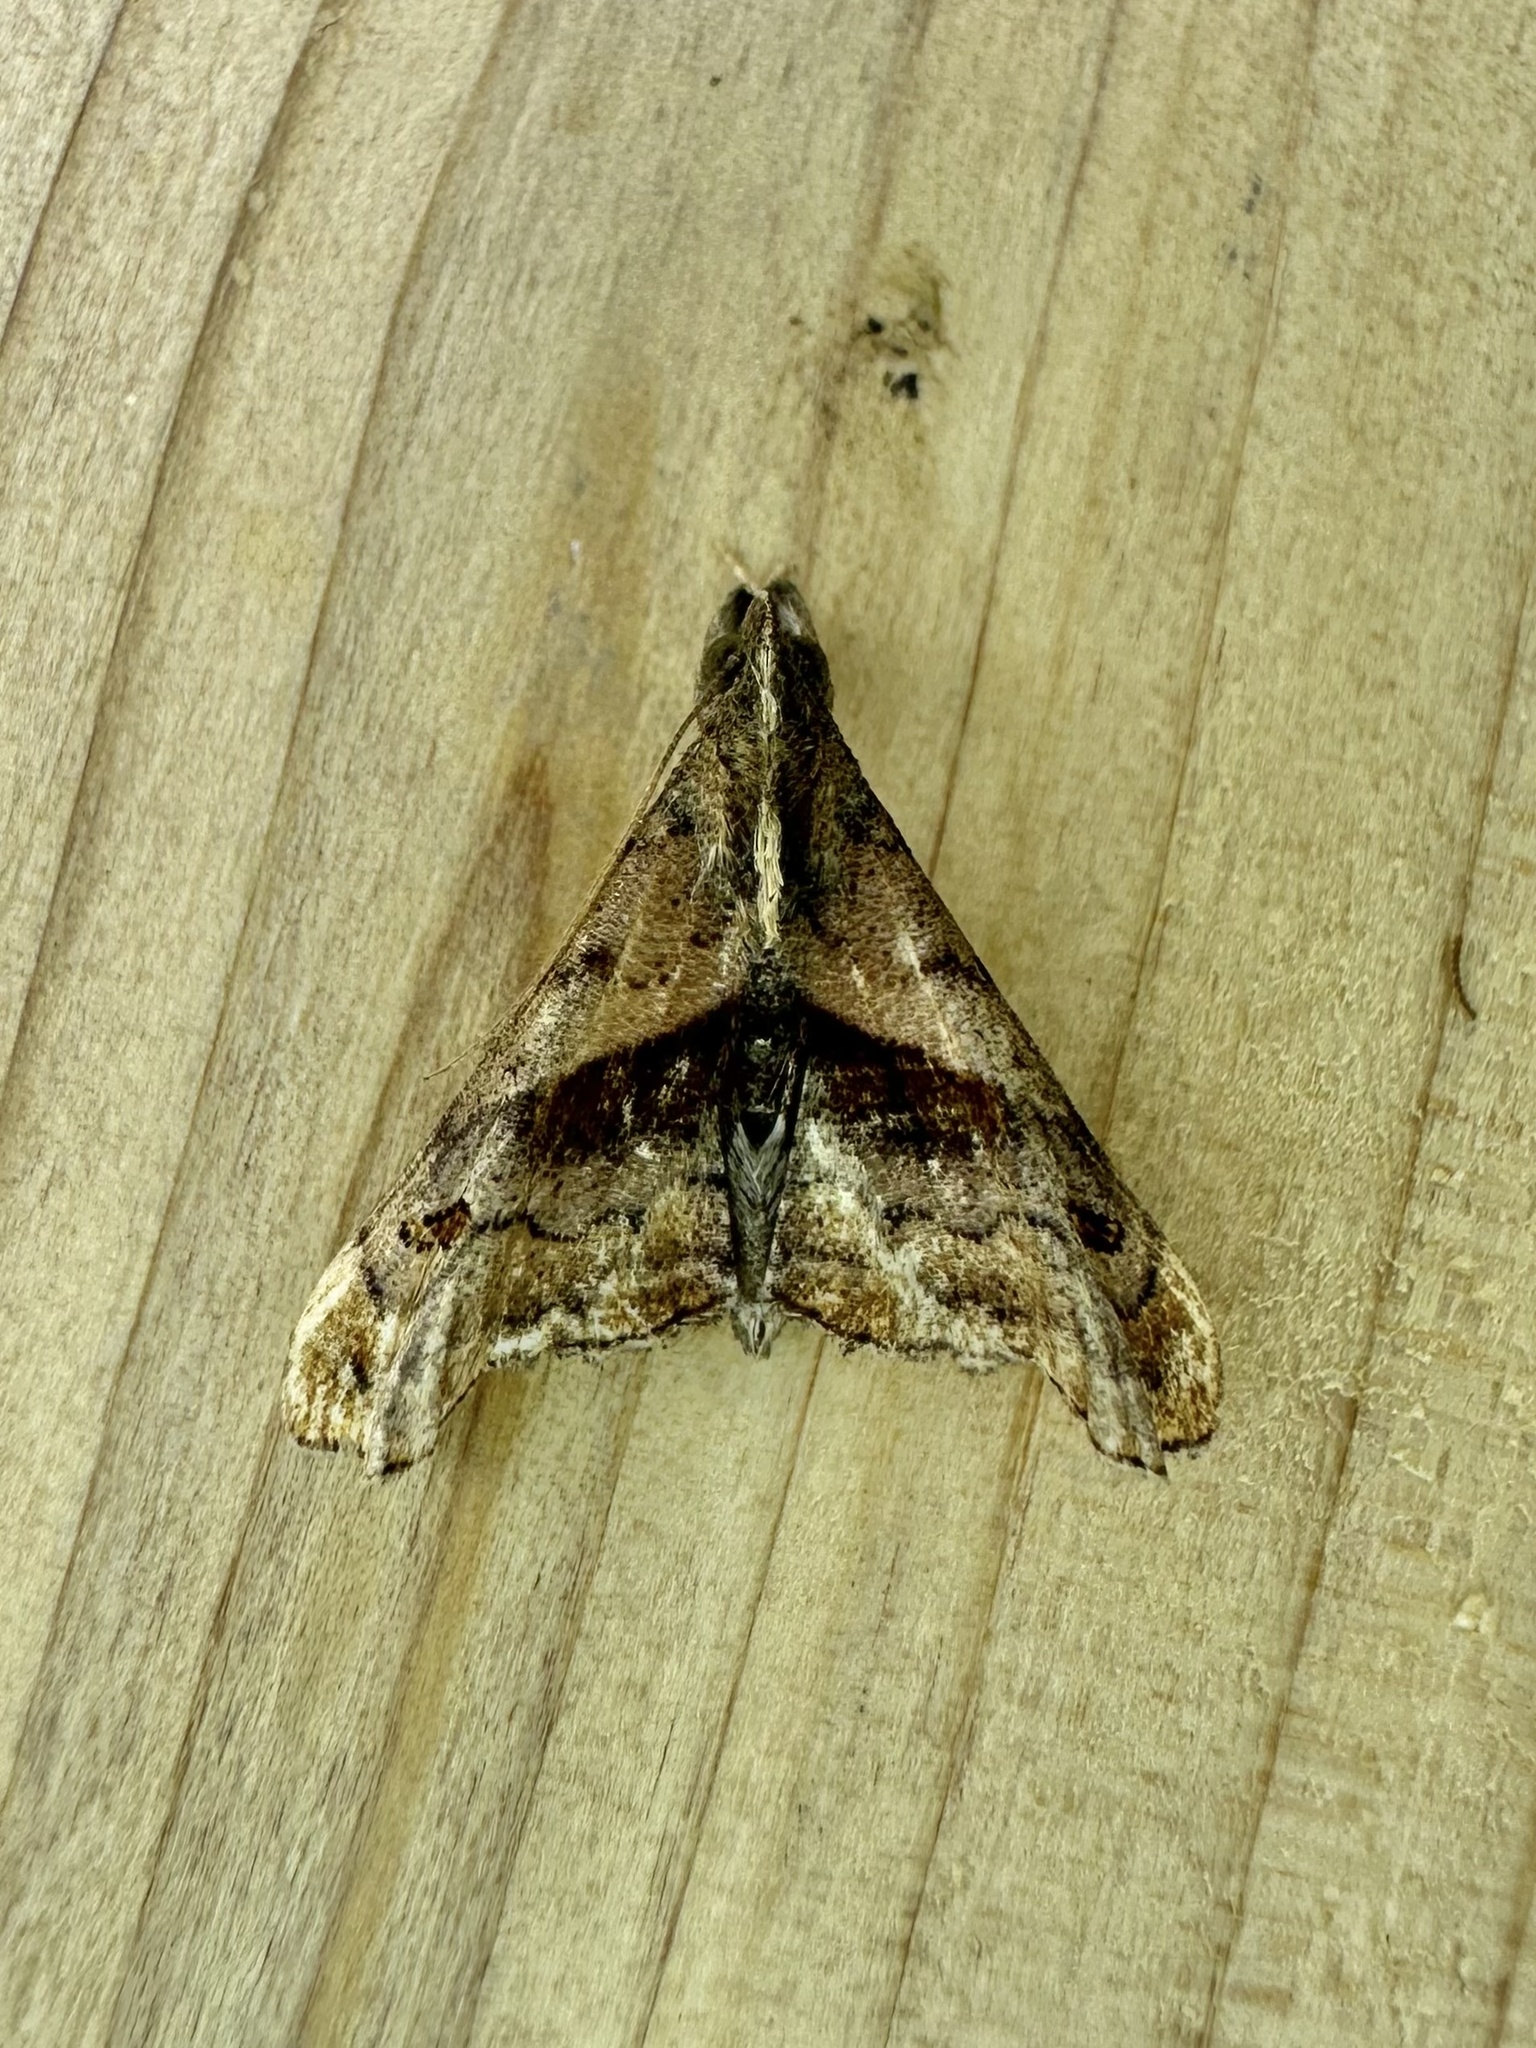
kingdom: Animalia
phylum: Arthropoda
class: Insecta
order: Lepidoptera
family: Erebidae
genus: Palthis
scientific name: Palthis angulalis
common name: Dark-spotted palthis moth
